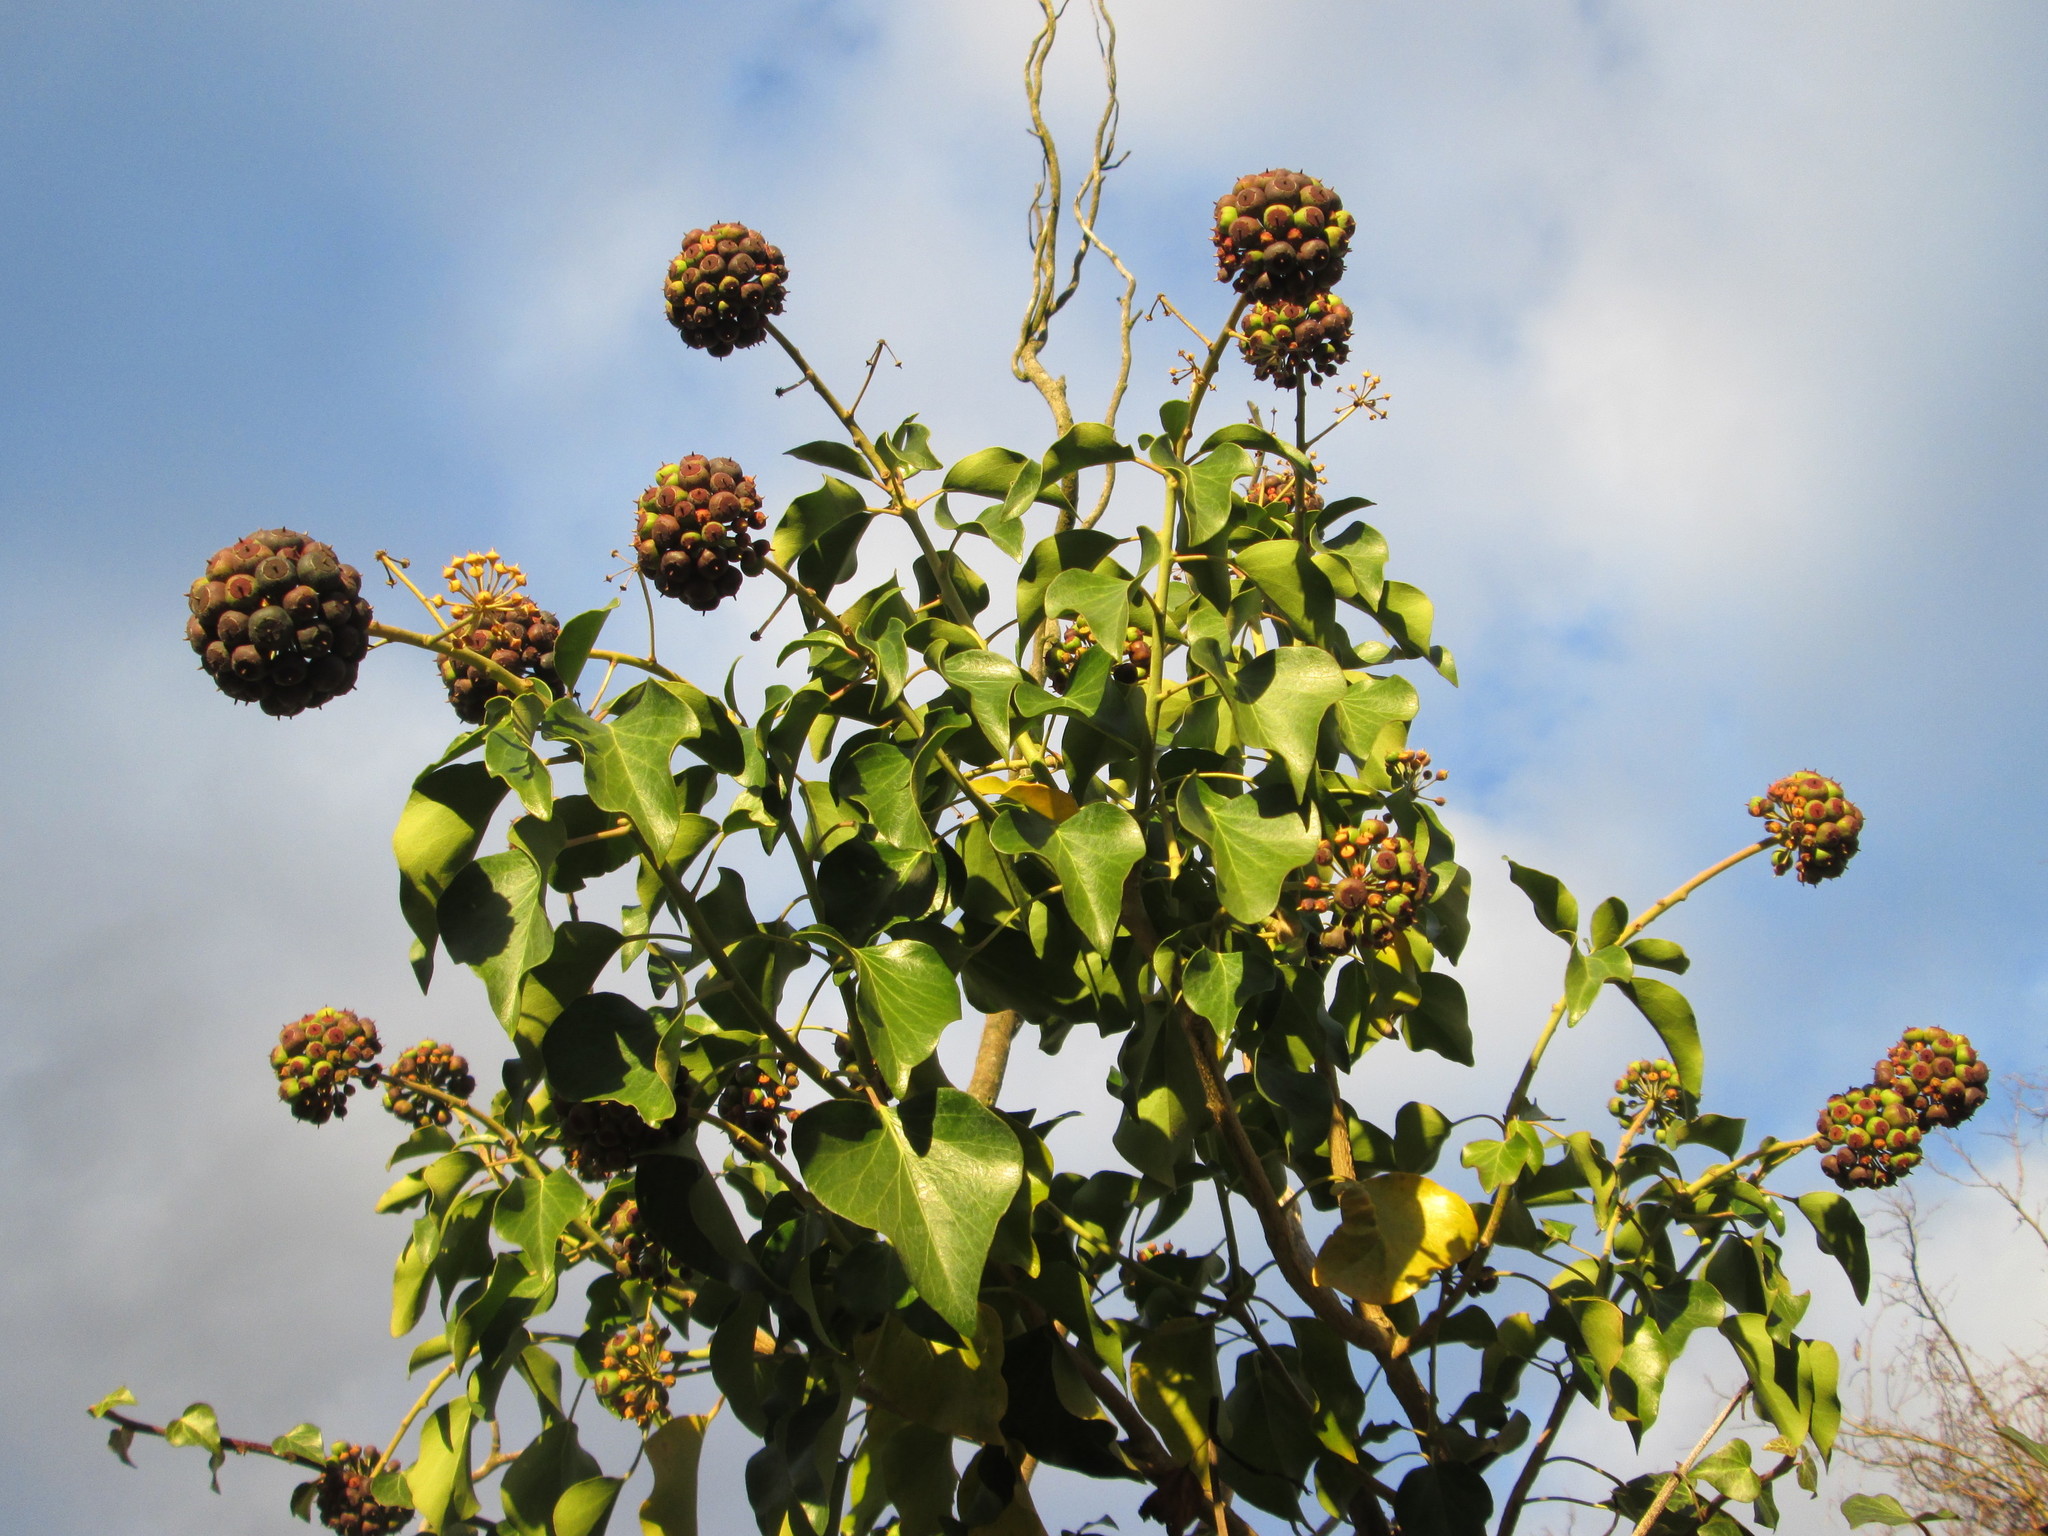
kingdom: Plantae
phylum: Tracheophyta
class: Magnoliopsida
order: Apiales
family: Araliaceae
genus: Hedera
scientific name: Hedera helix
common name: Ivy
